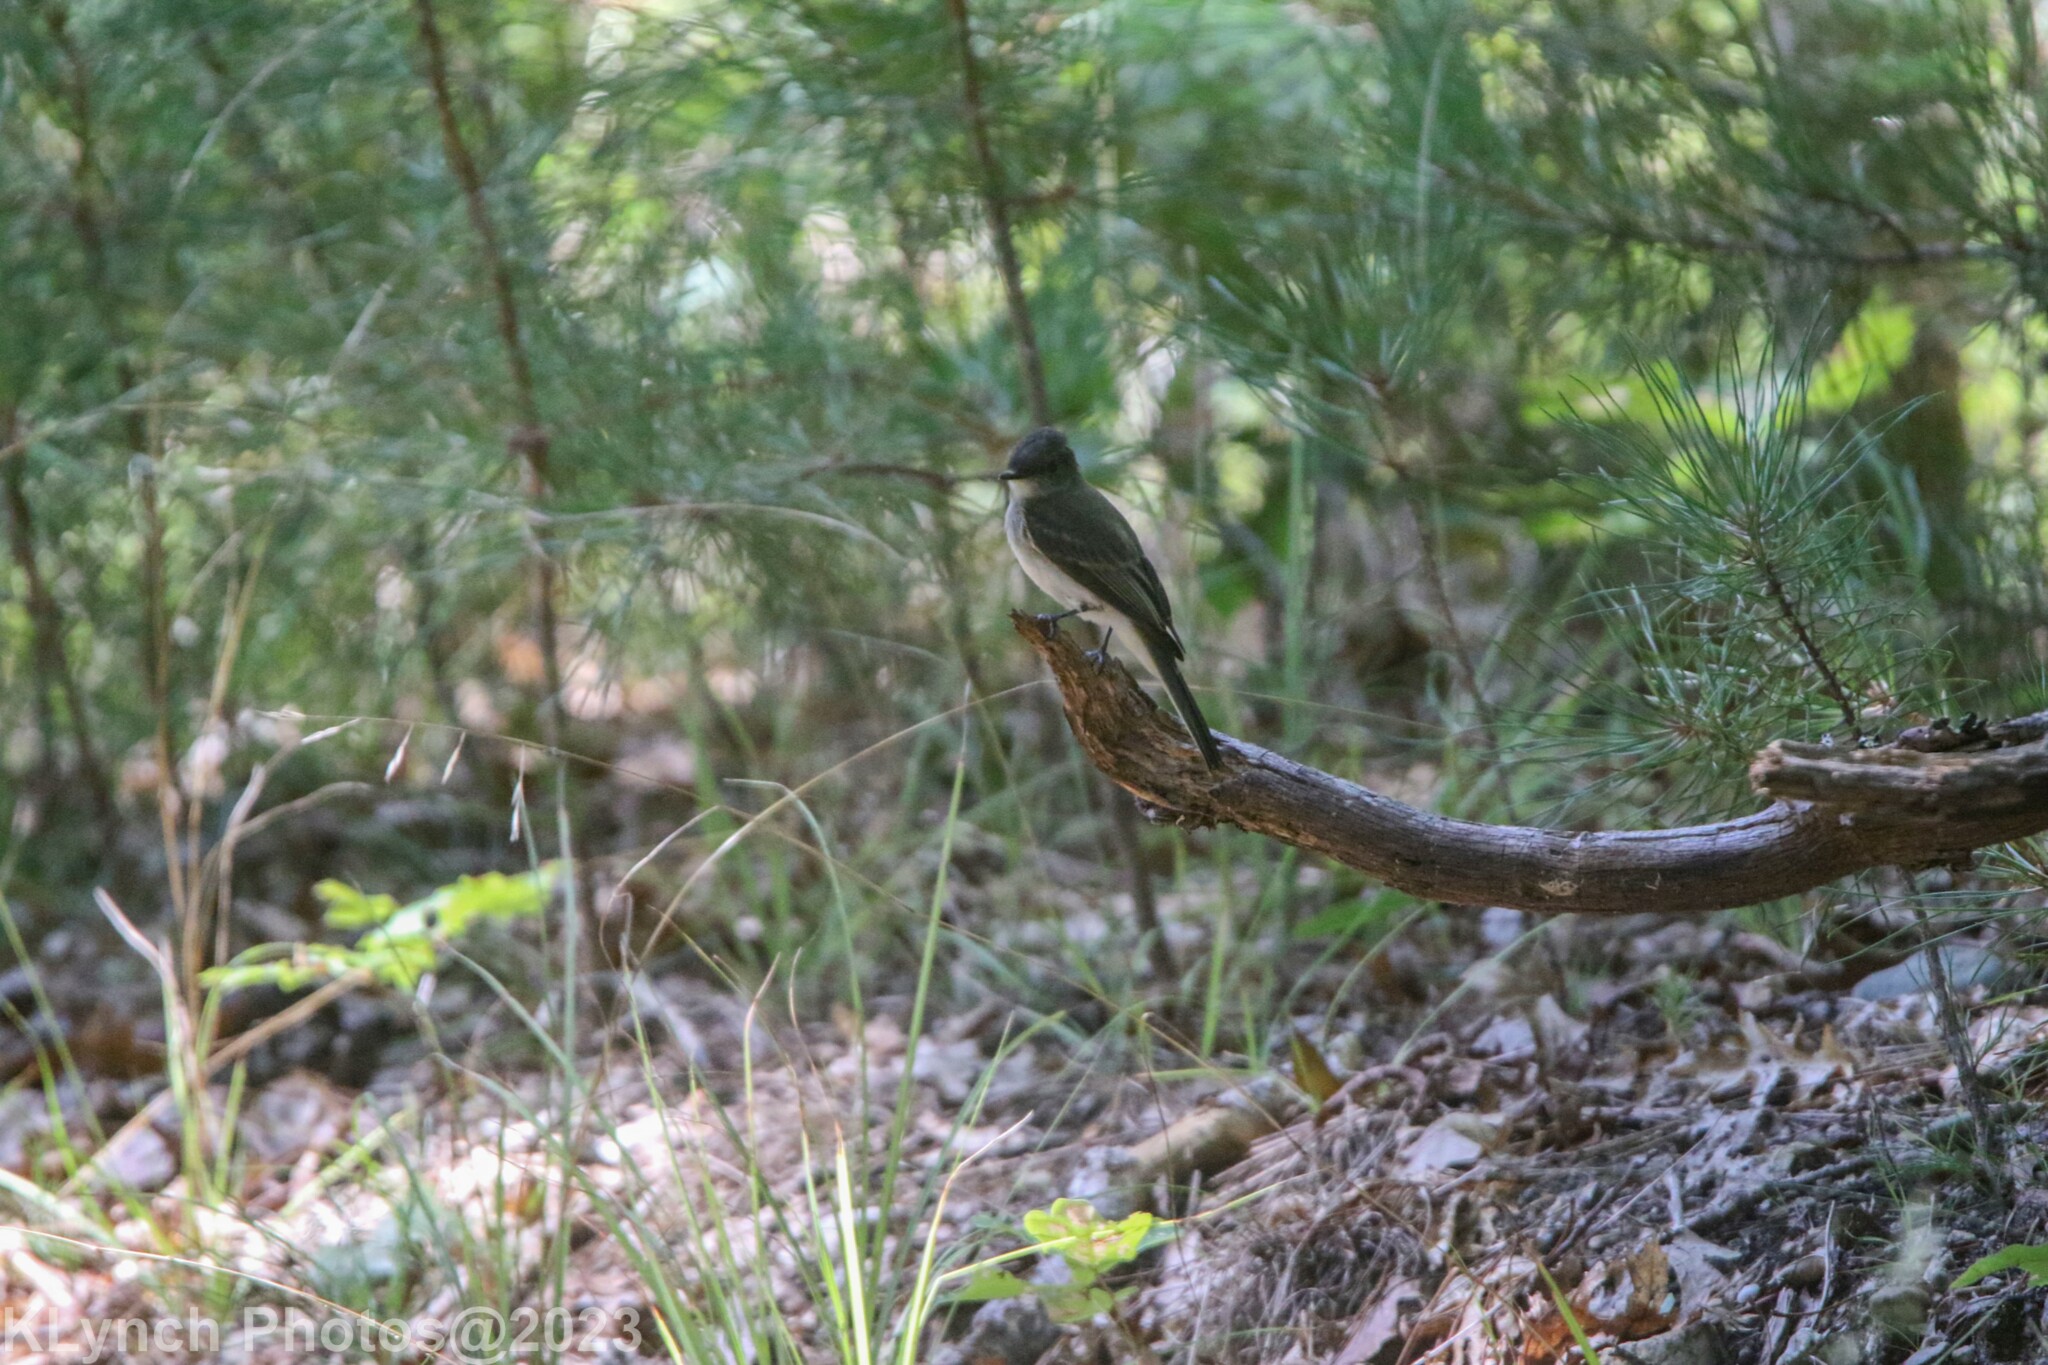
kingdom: Animalia
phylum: Chordata
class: Aves
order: Passeriformes
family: Tyrannidae
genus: Sayornis
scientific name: Sayornis phoebe
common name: Eastern phoebe
